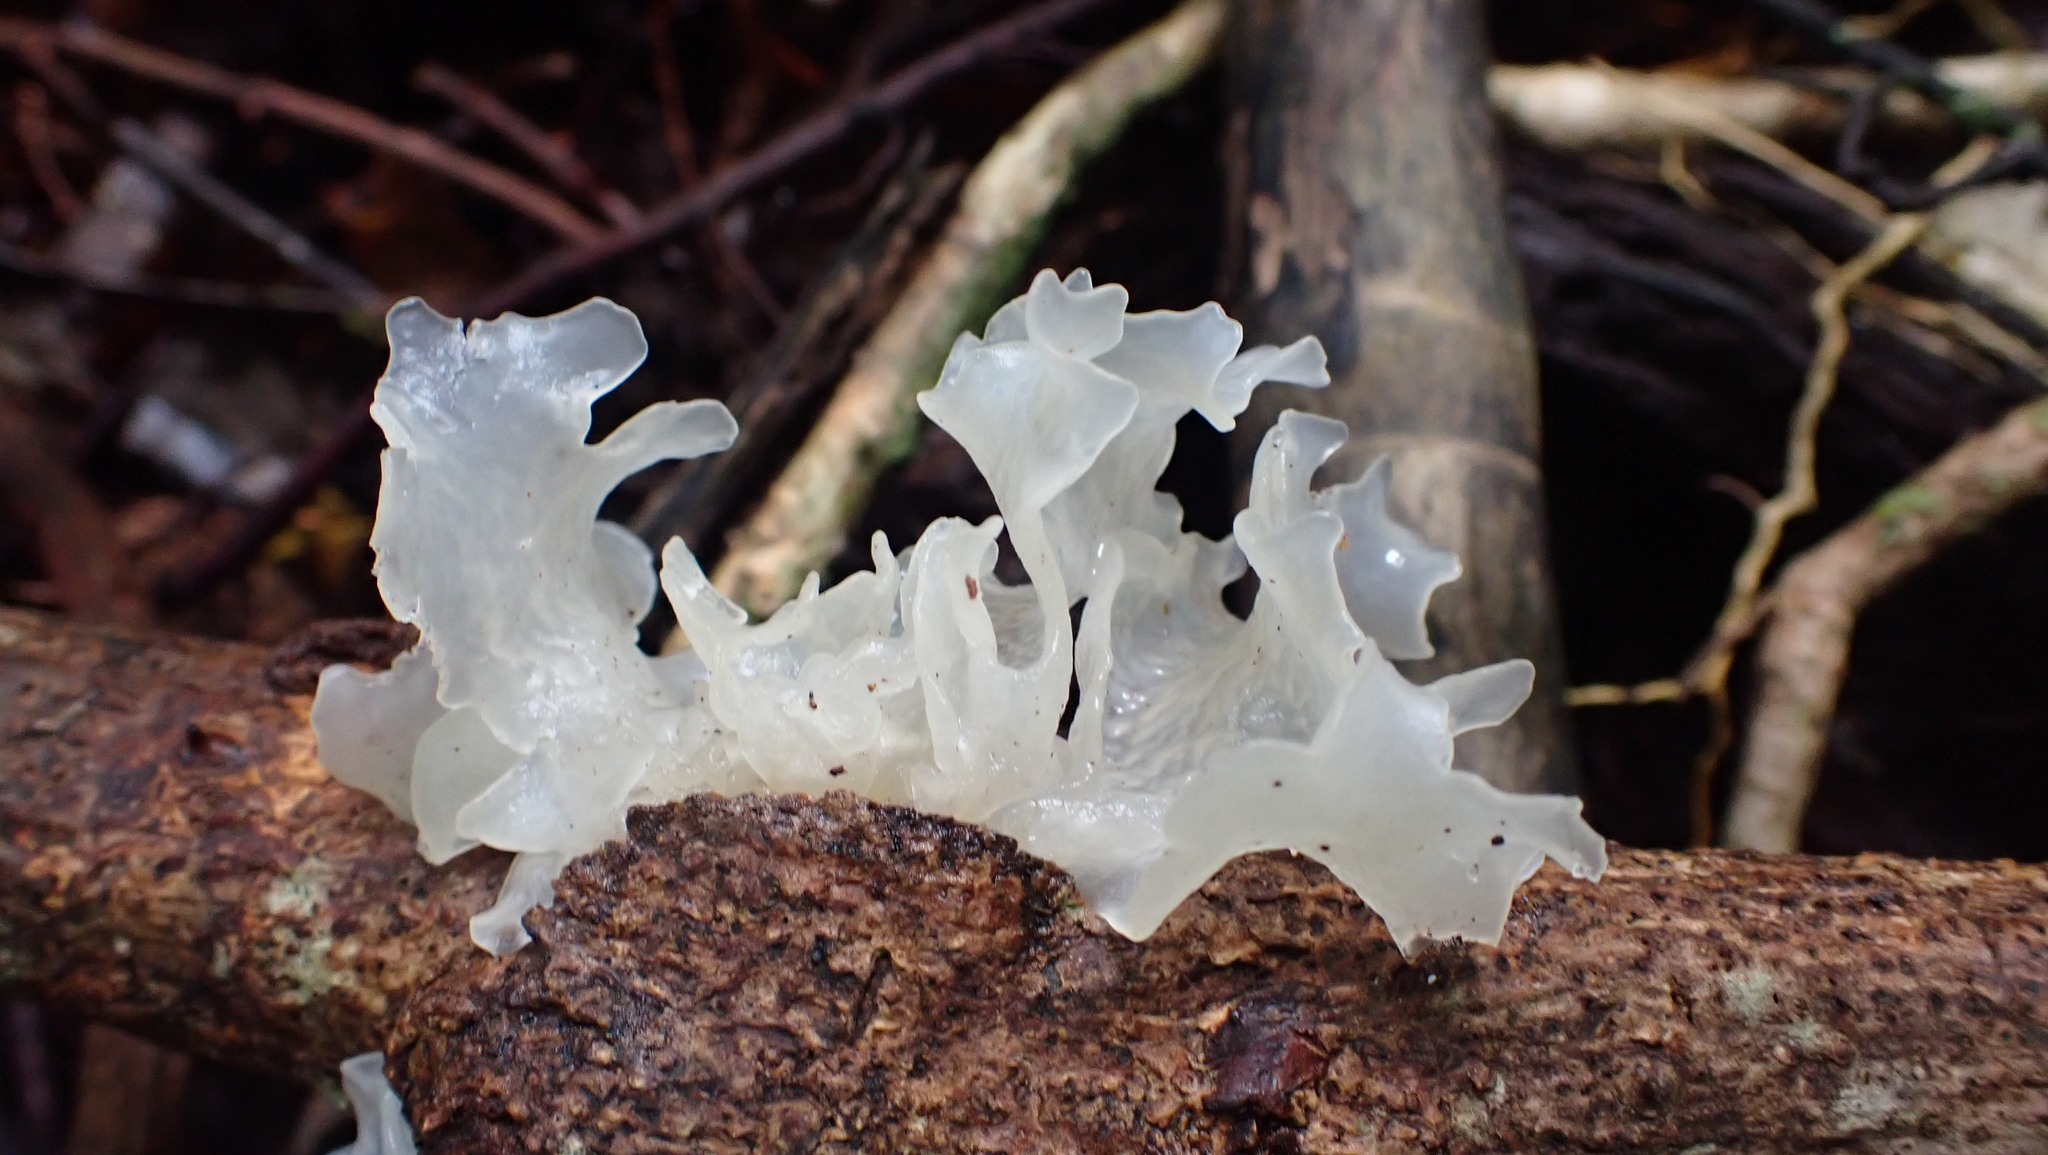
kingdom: Fungi
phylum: Basidiomycota
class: Tremellomycetes
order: Tremellales
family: Tremellaceae
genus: Tremella
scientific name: Tremella fuciformis
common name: Snow fungus
